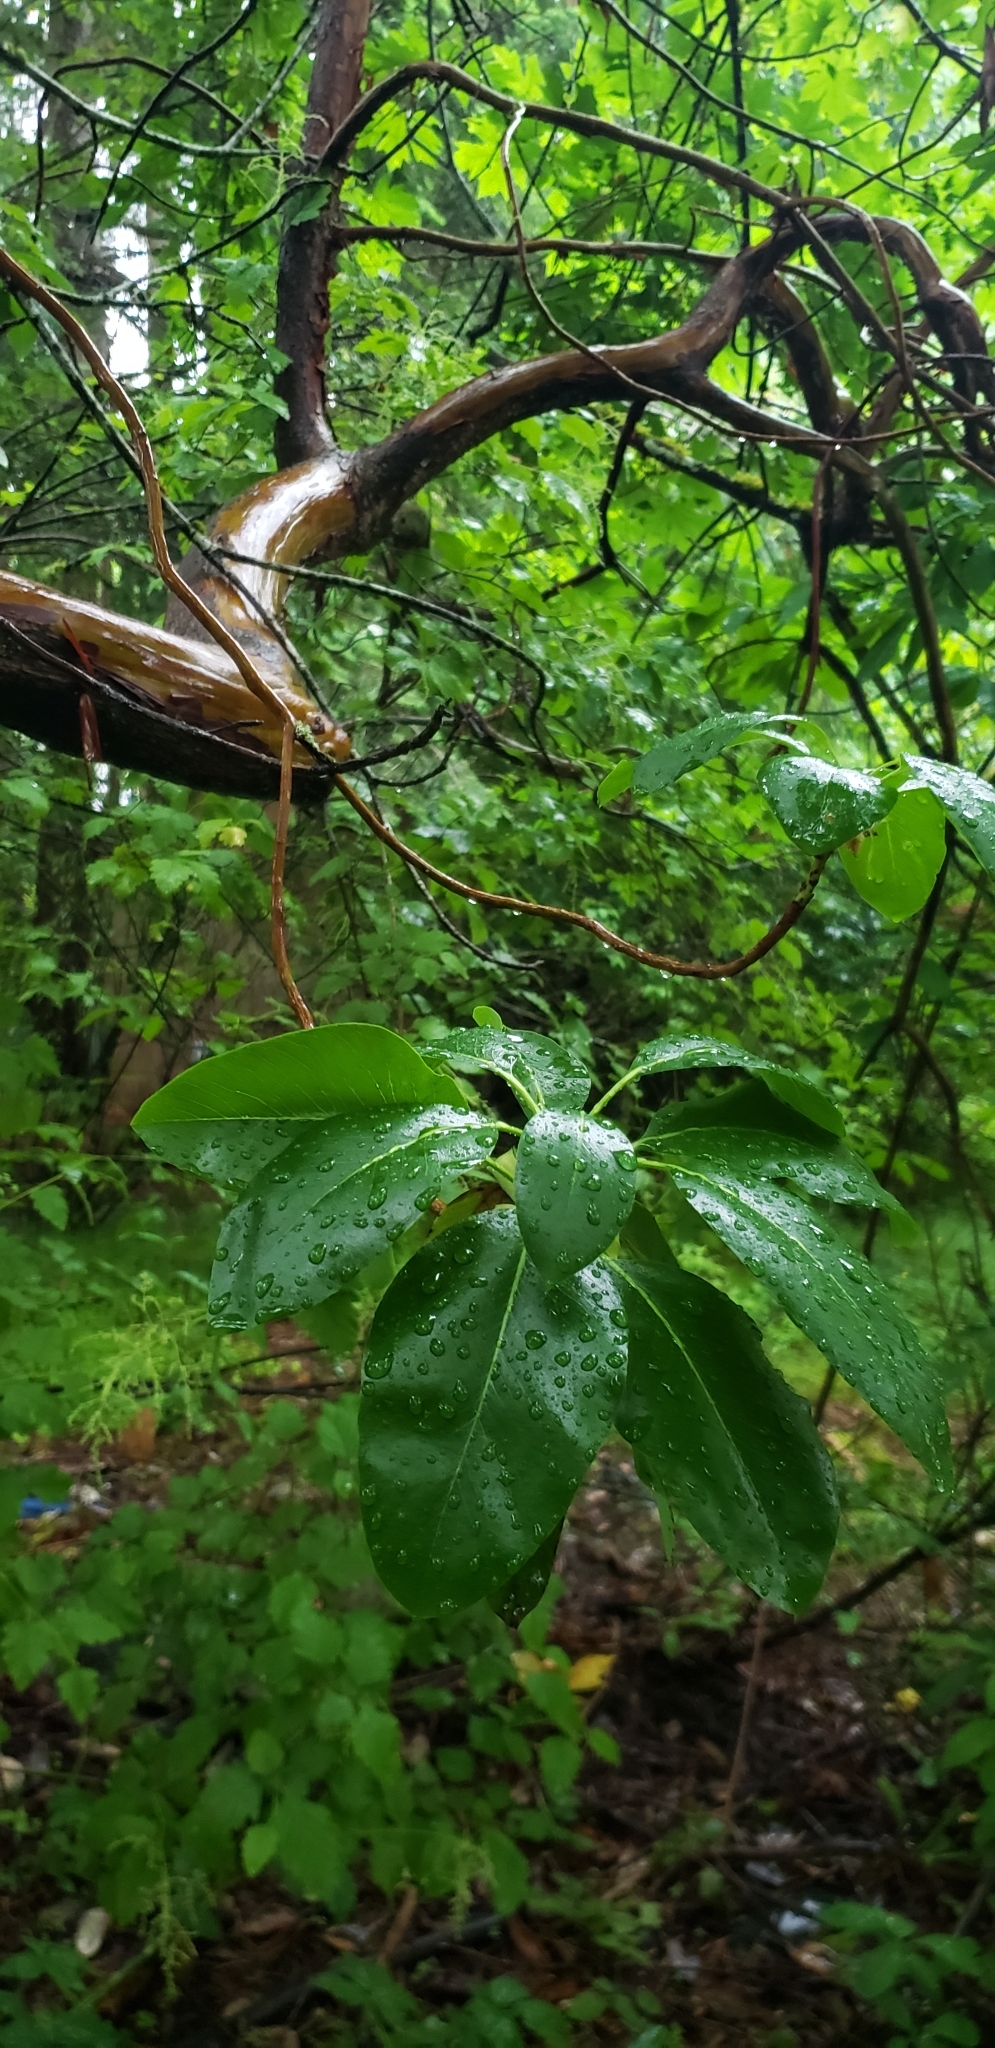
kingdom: Plantae
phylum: Tracheophyta
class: Magnoliopsida
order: Ericales
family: Ericaceae
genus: Arbutus
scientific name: Arbutus menziesii
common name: Pacific madrone
